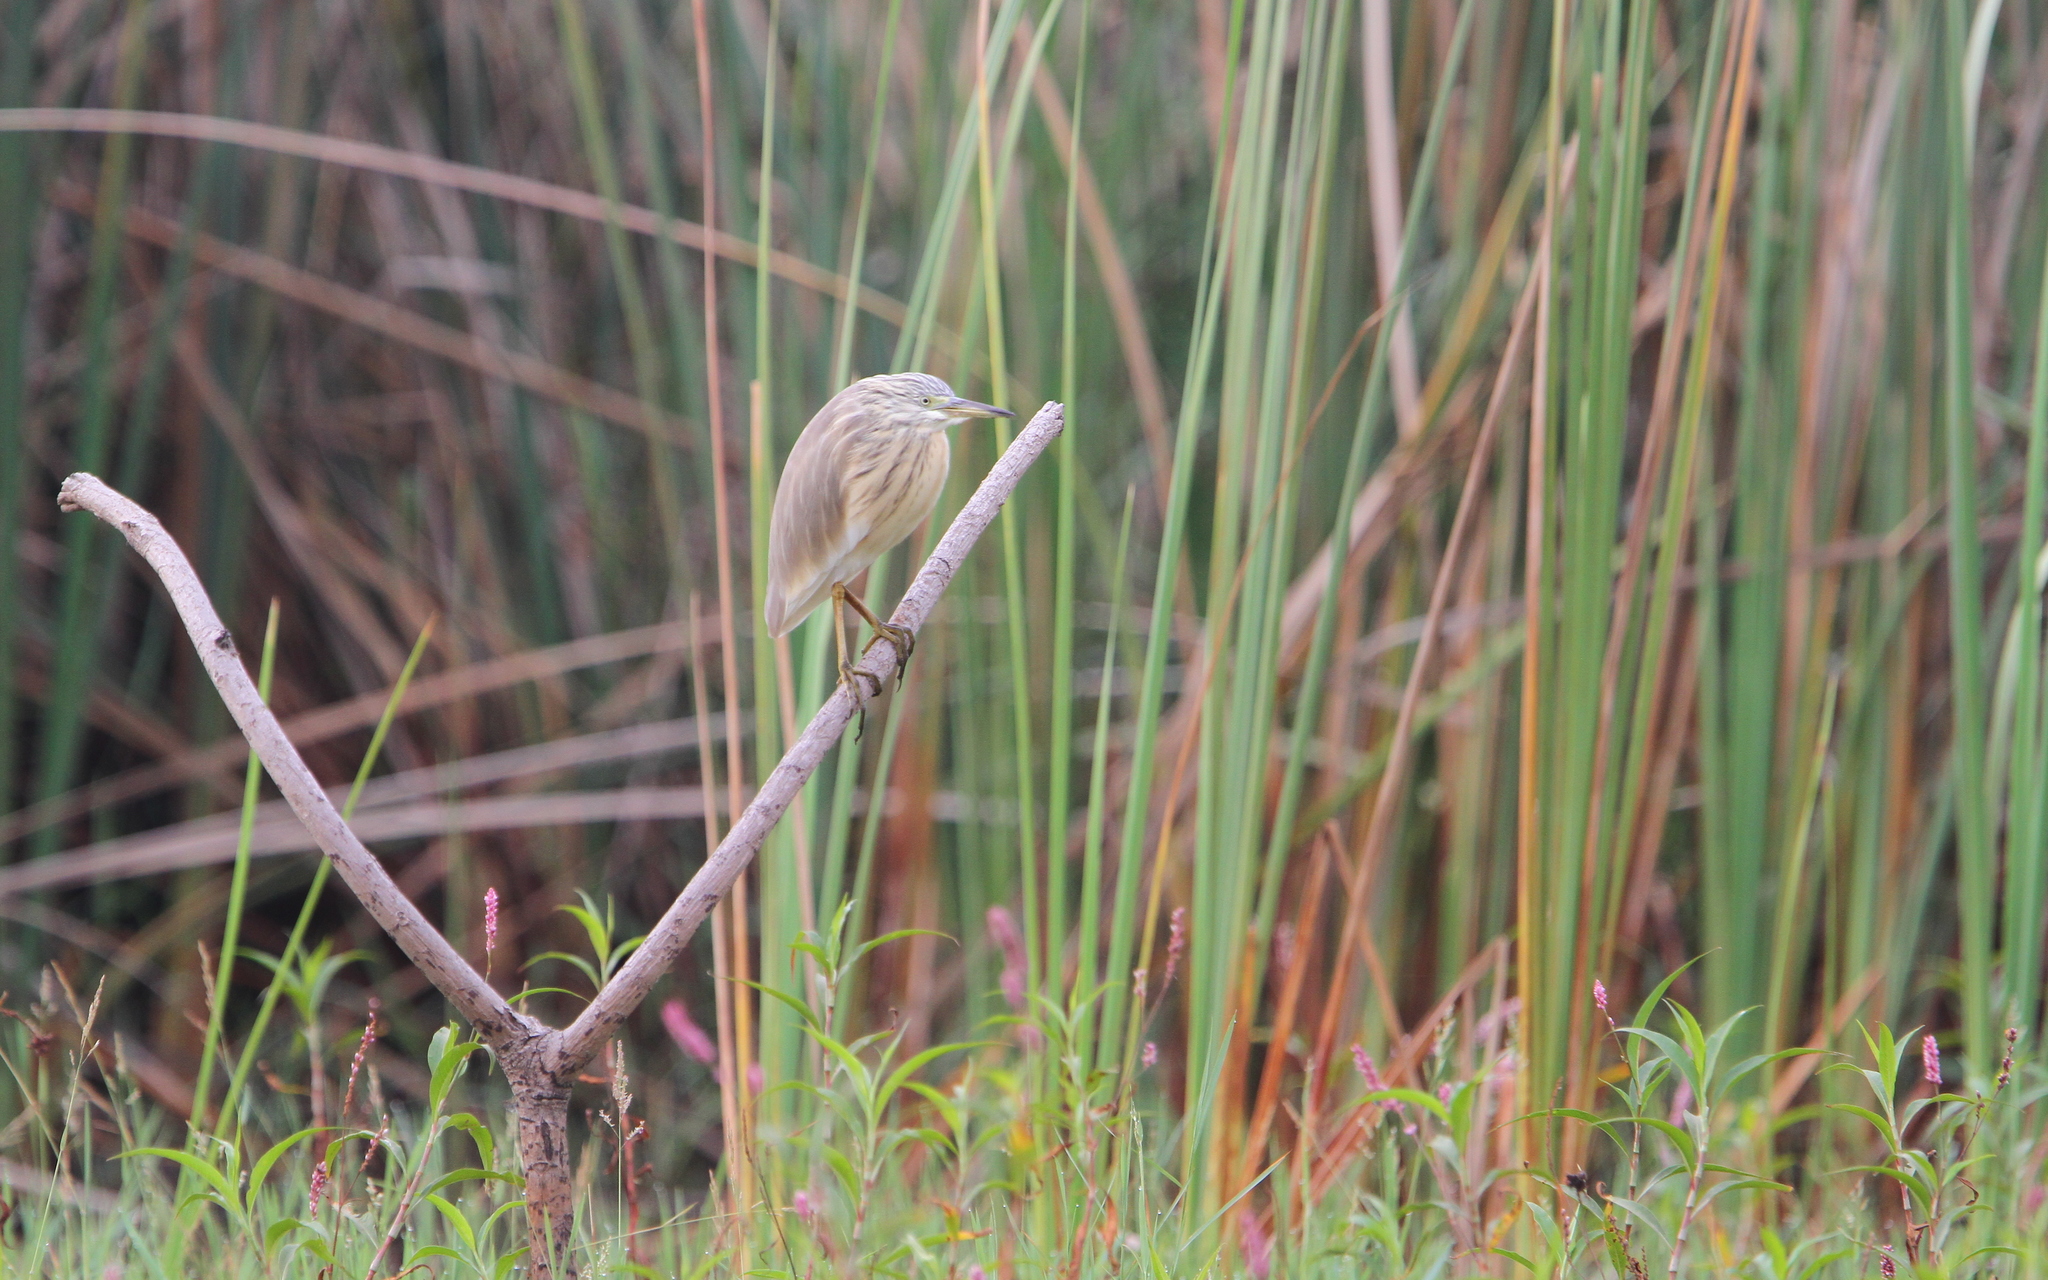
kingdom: Animalia
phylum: Chordata
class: Aves
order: Pelecaniformes
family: Ardeidae
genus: Ardeola
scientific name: Ardeola ralloides
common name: Squacco heron
